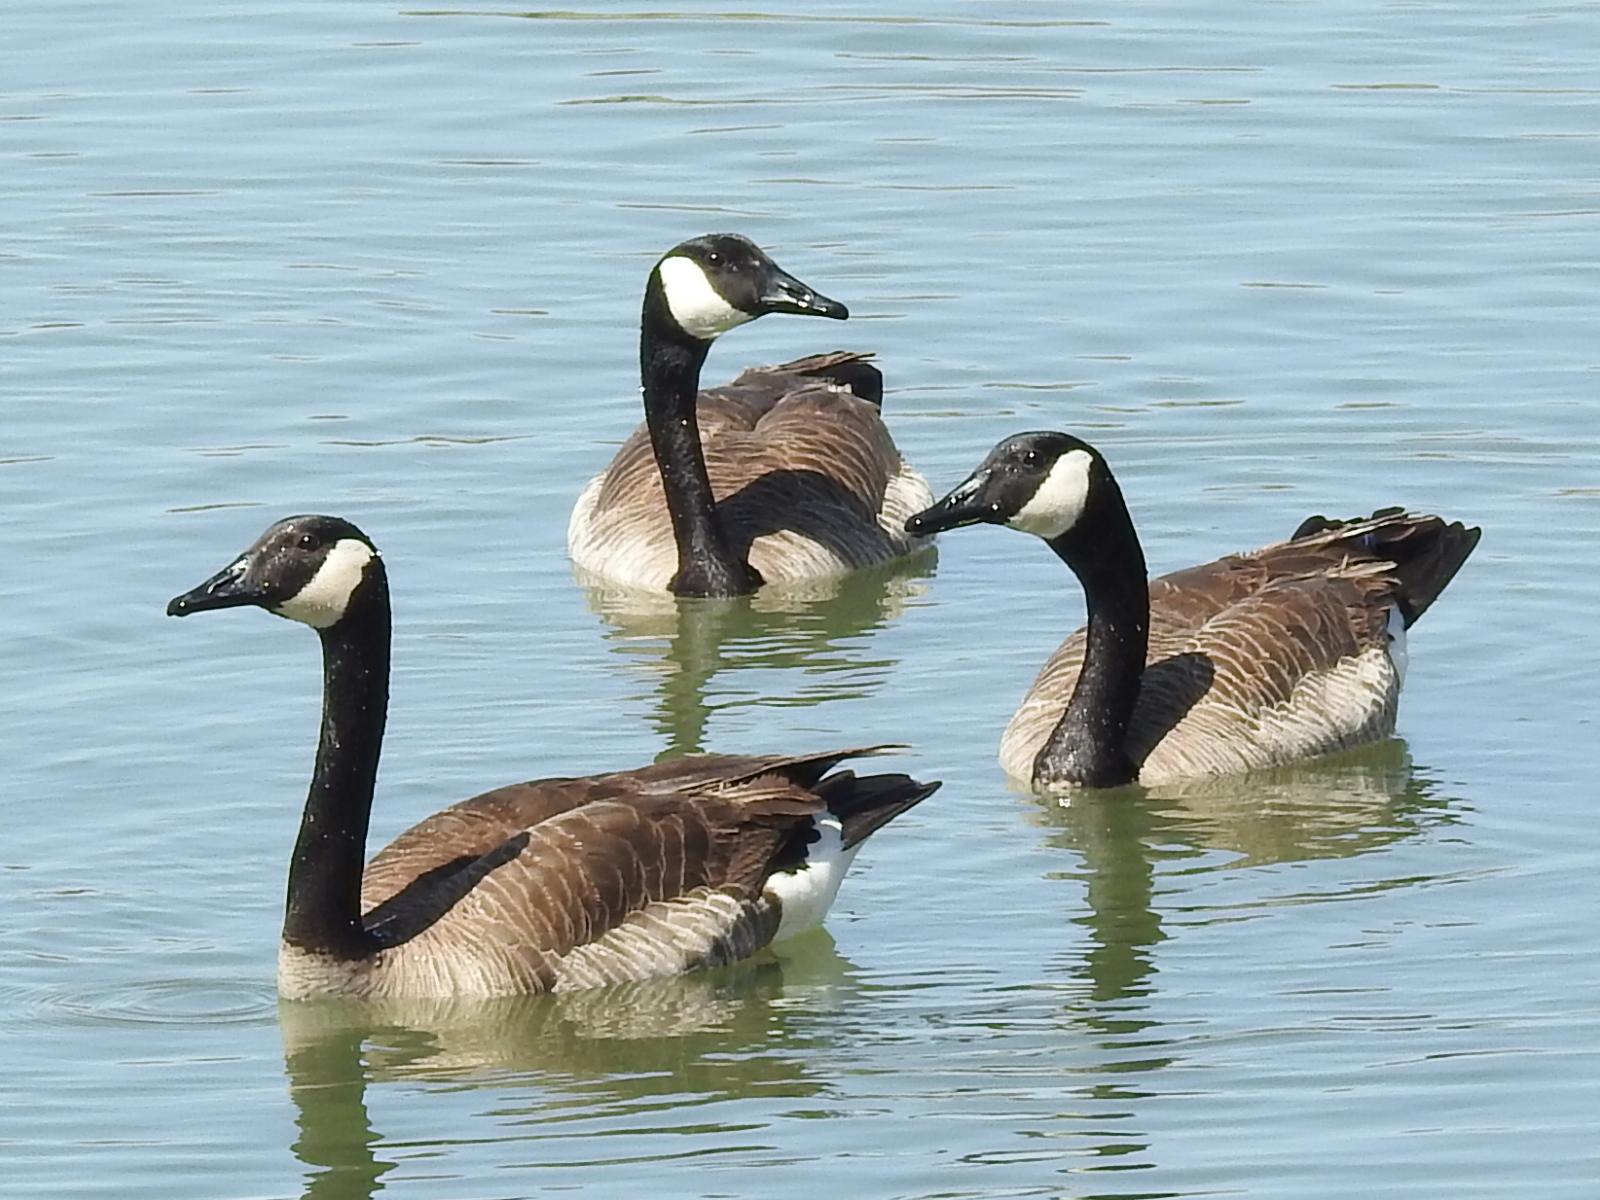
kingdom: Animalia
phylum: Chordata
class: Aves
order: Anseriformes
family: Anatidae
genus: Branta
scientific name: Branta canadensis
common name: Canada goose
